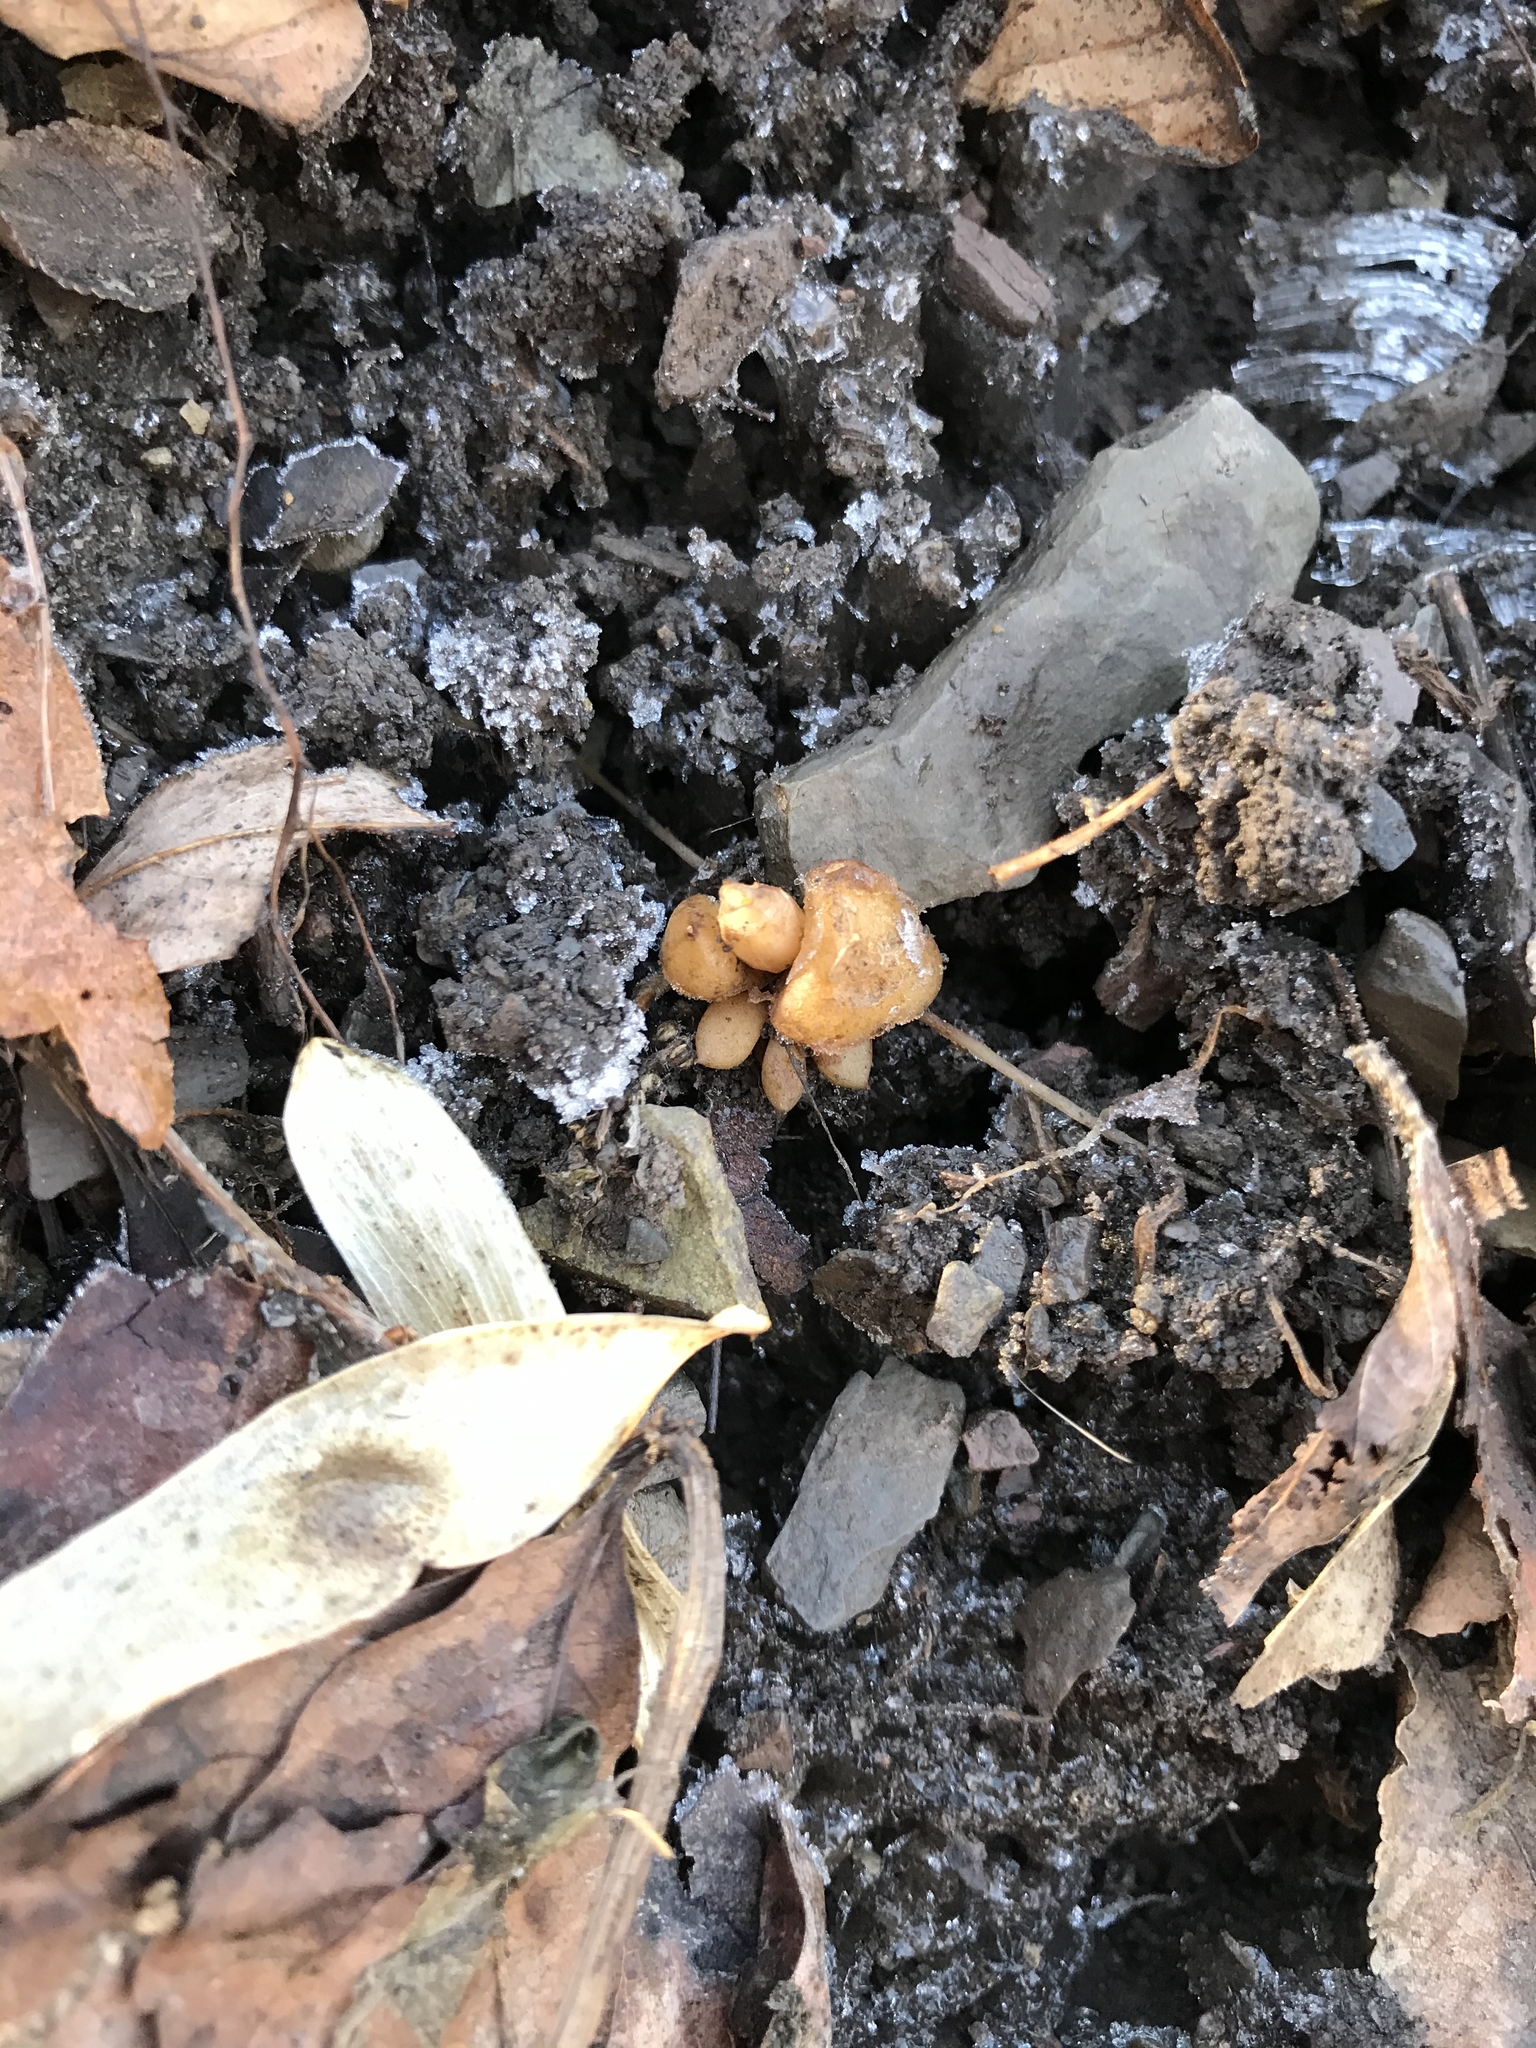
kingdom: Plantae
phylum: Tracheophyta
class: Magnoliopsida
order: Ranunculales
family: Papaveraceae
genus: Dicentra
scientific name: Dicentra cucullaria
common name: Dutchman's breeches
